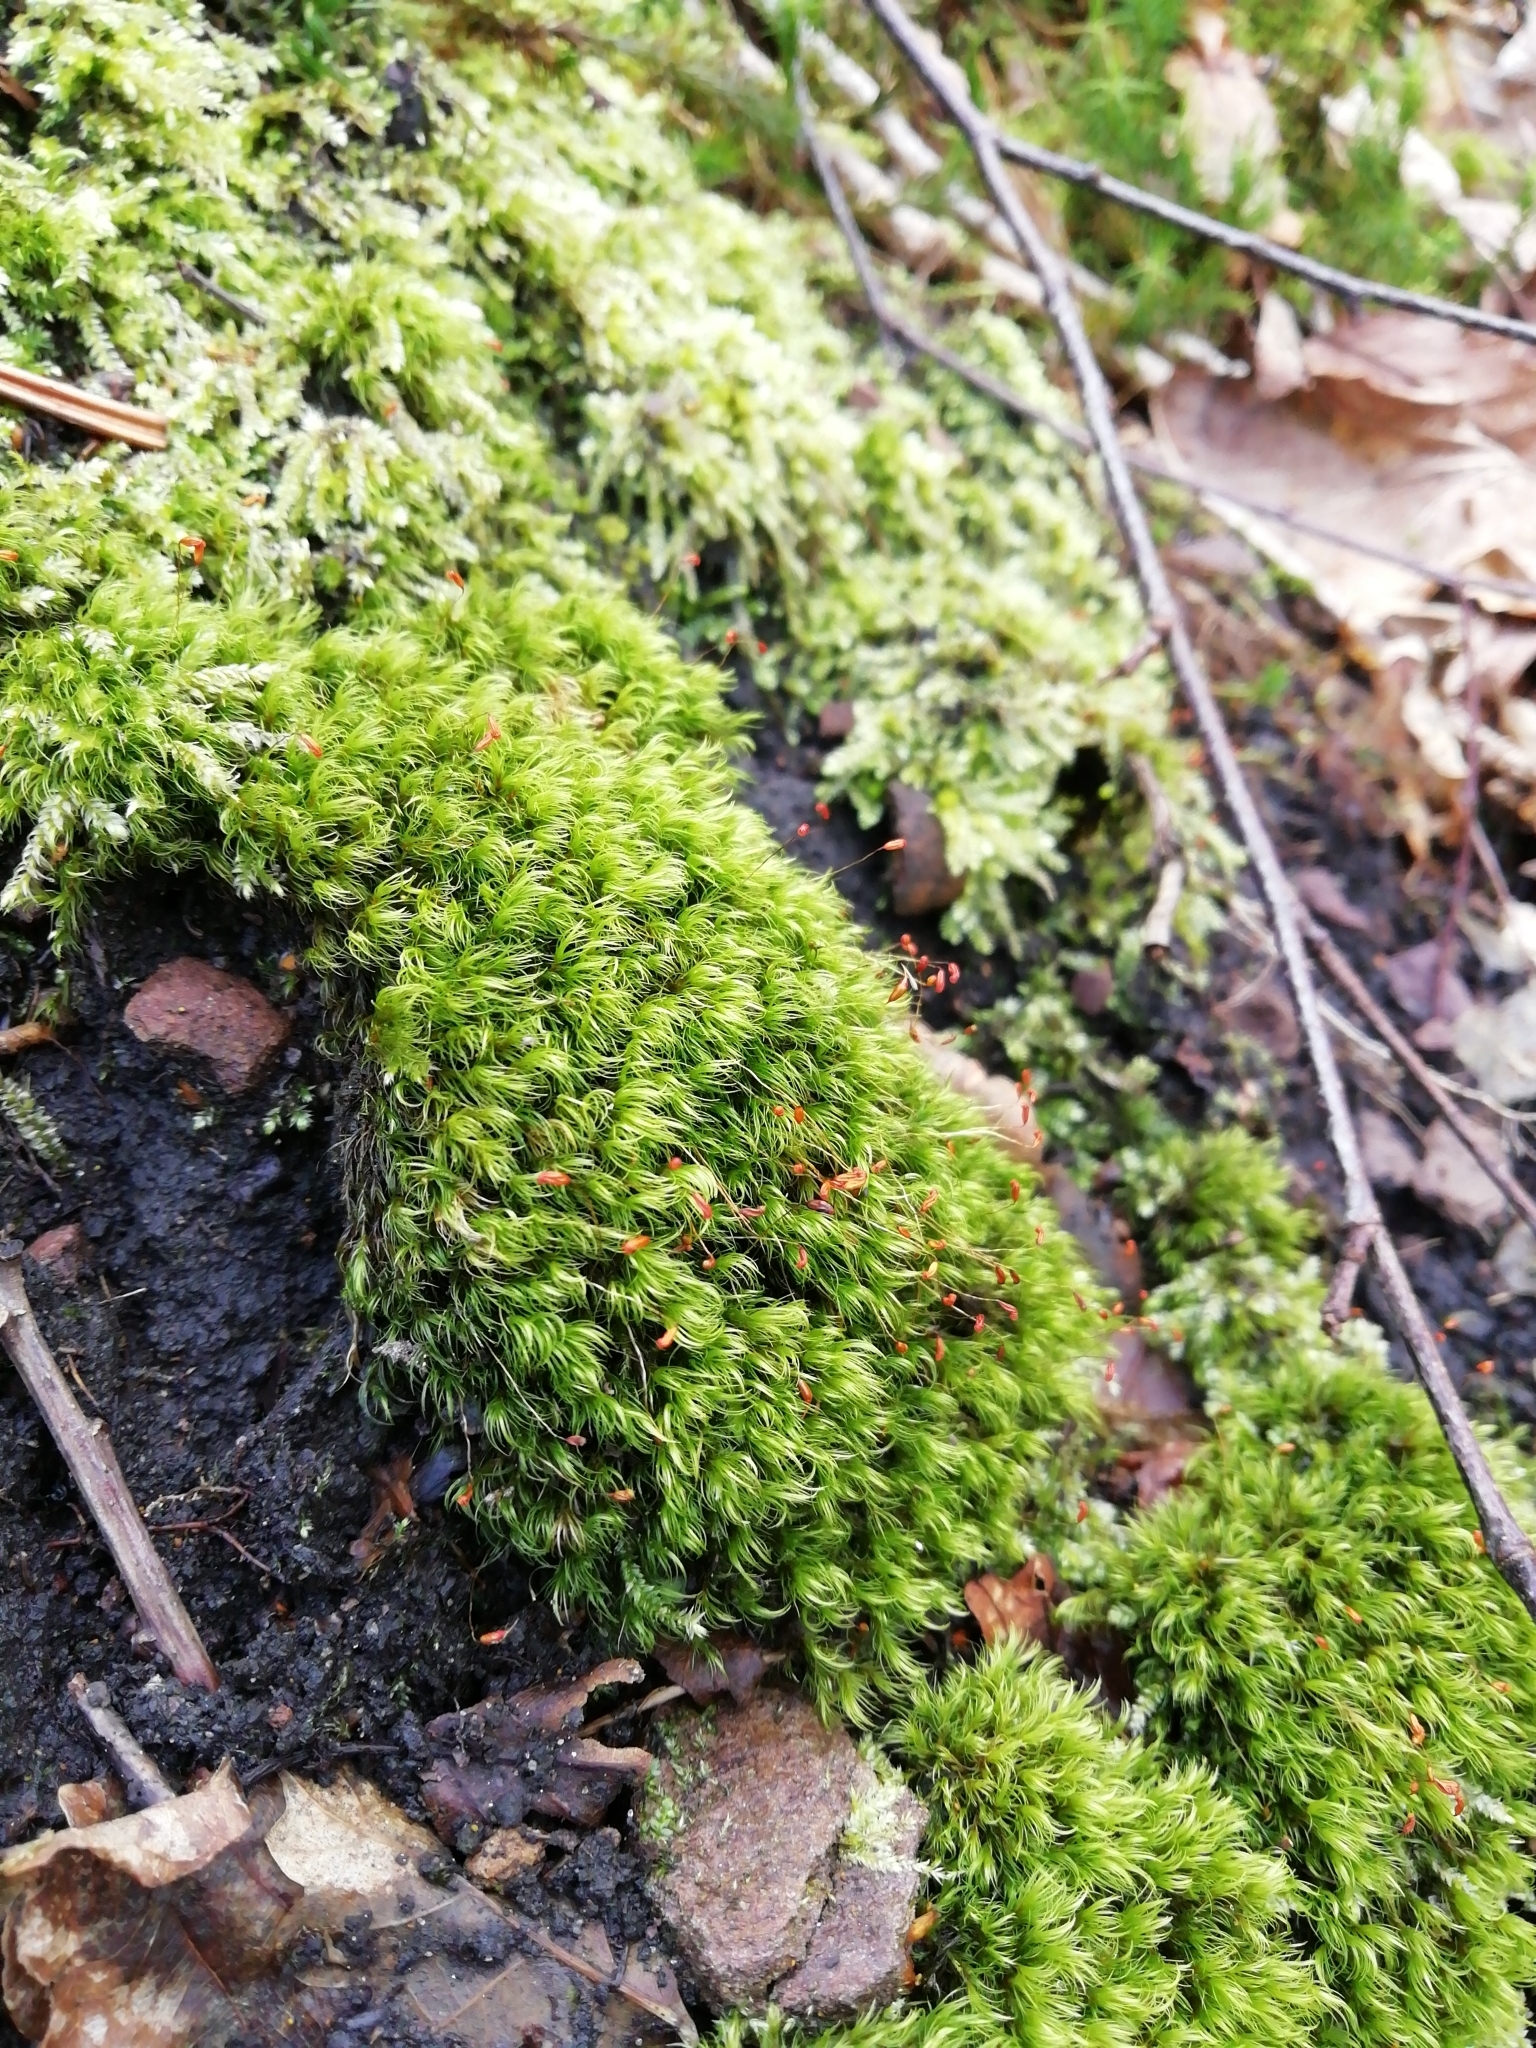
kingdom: Plantae
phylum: Bryophyta
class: Bryopsida
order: Dicranales
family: Dicranaceae
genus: Dicranum
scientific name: Dicranum scoparium
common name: Broom fork-moss
